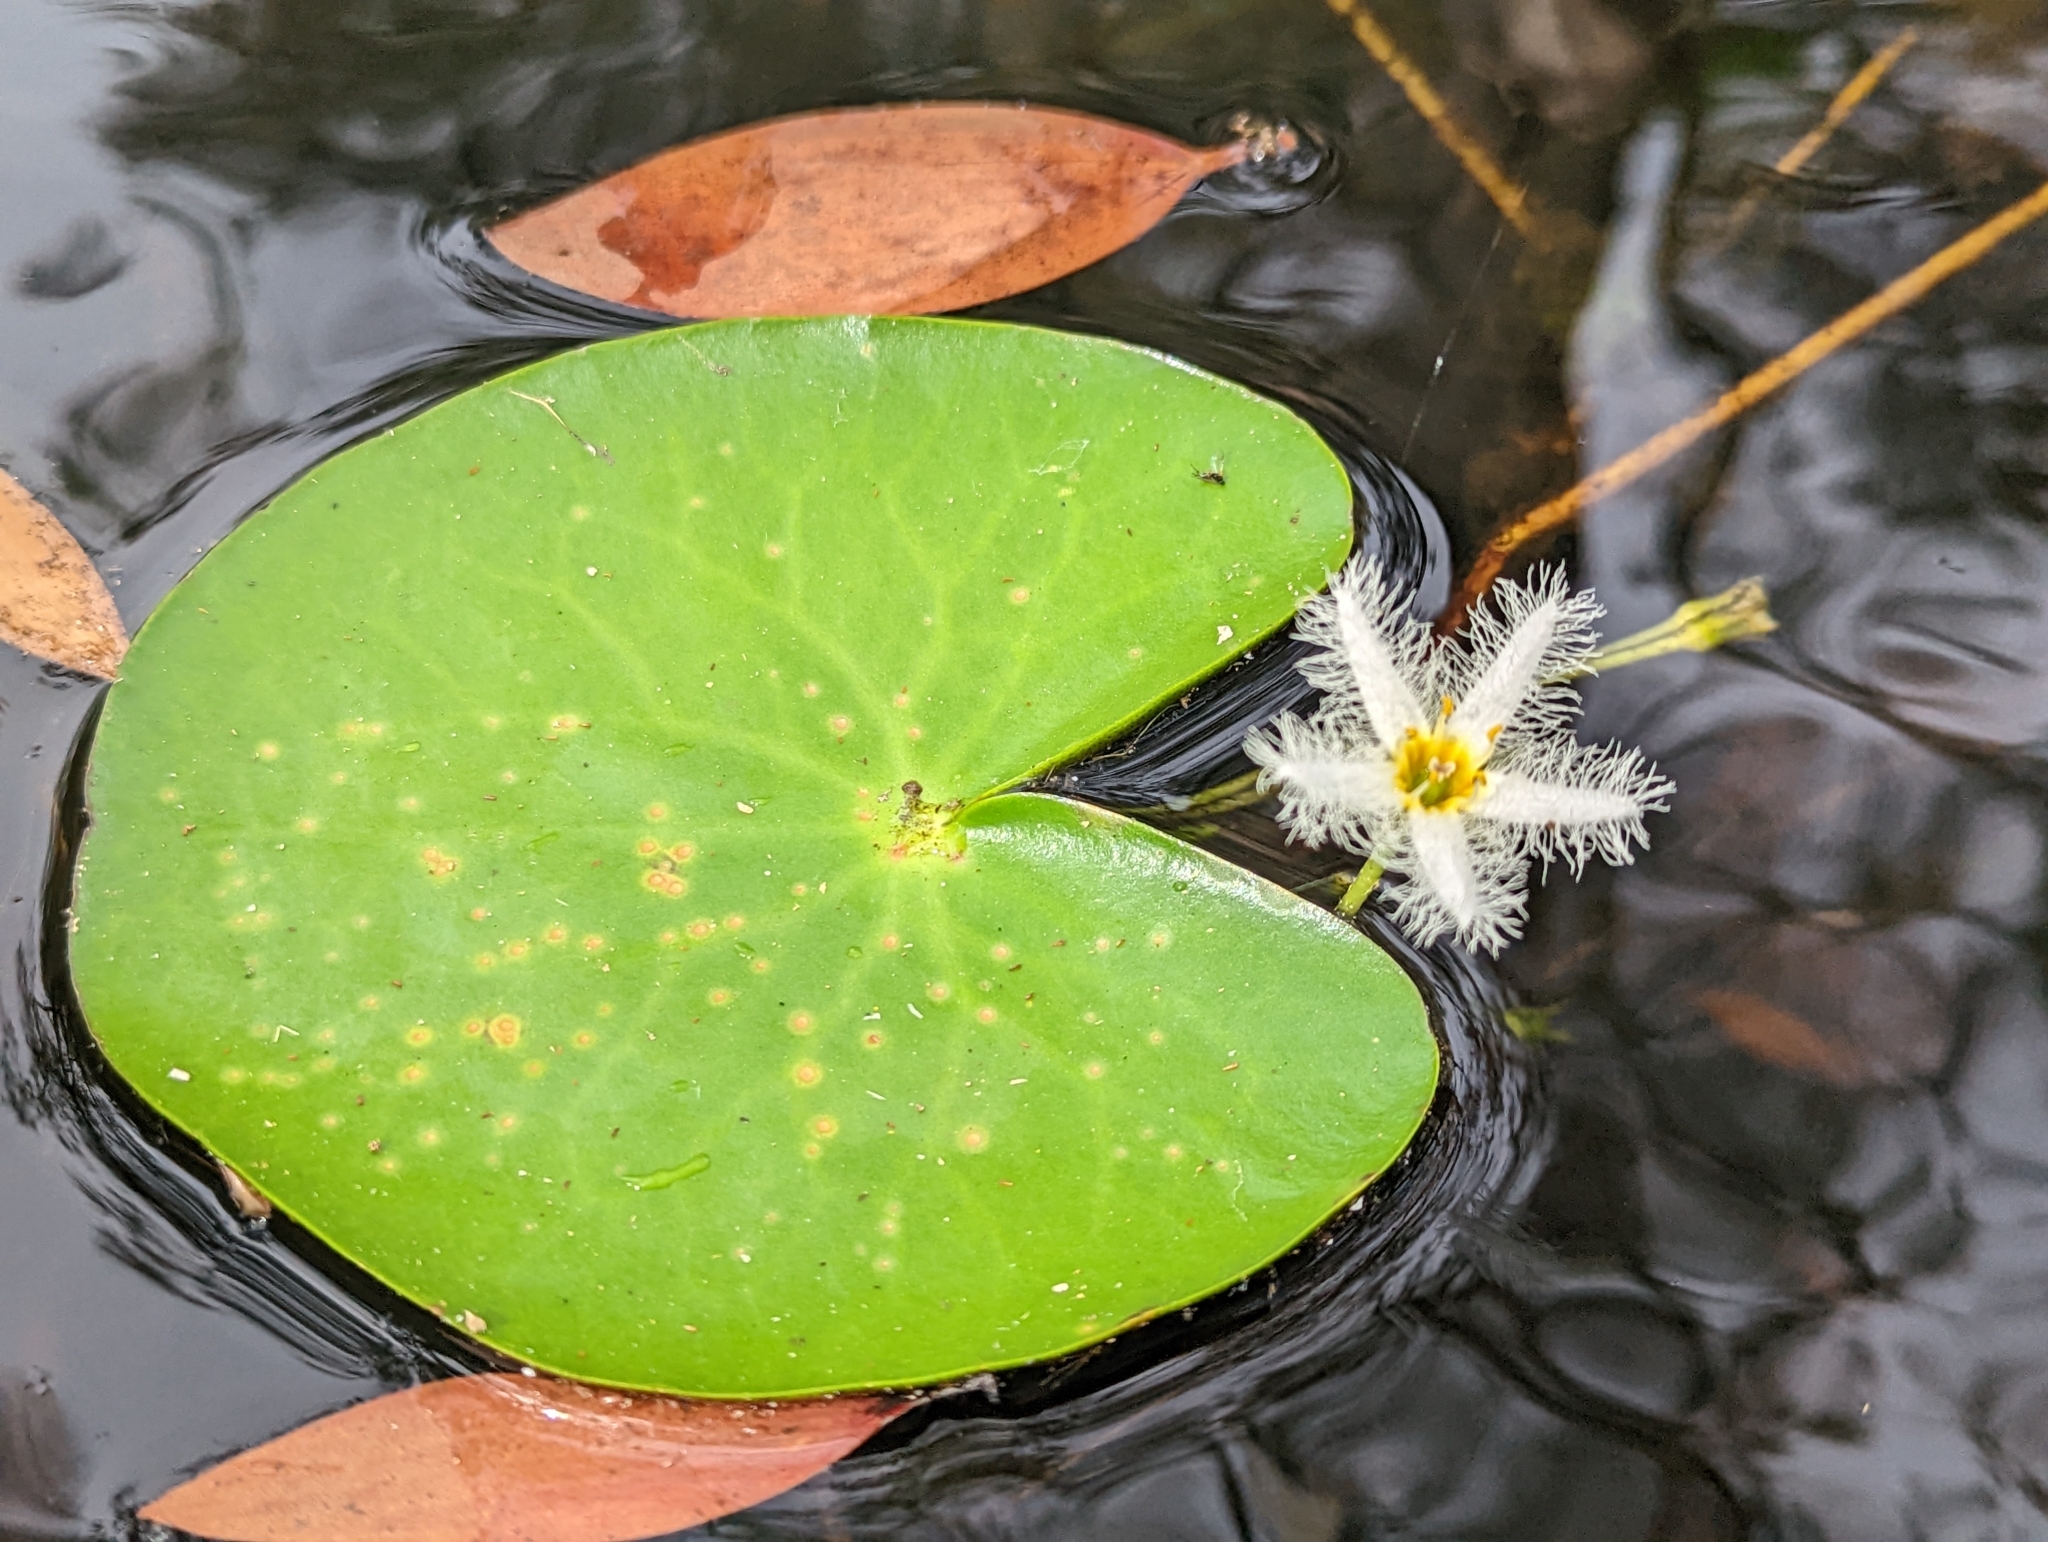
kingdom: Plantae
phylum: Tracheophyta
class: Magnoliopsida
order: Asterales
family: Menyanthaceae
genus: Nymphoides
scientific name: Nymphoides indica
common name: Water-snowflake
